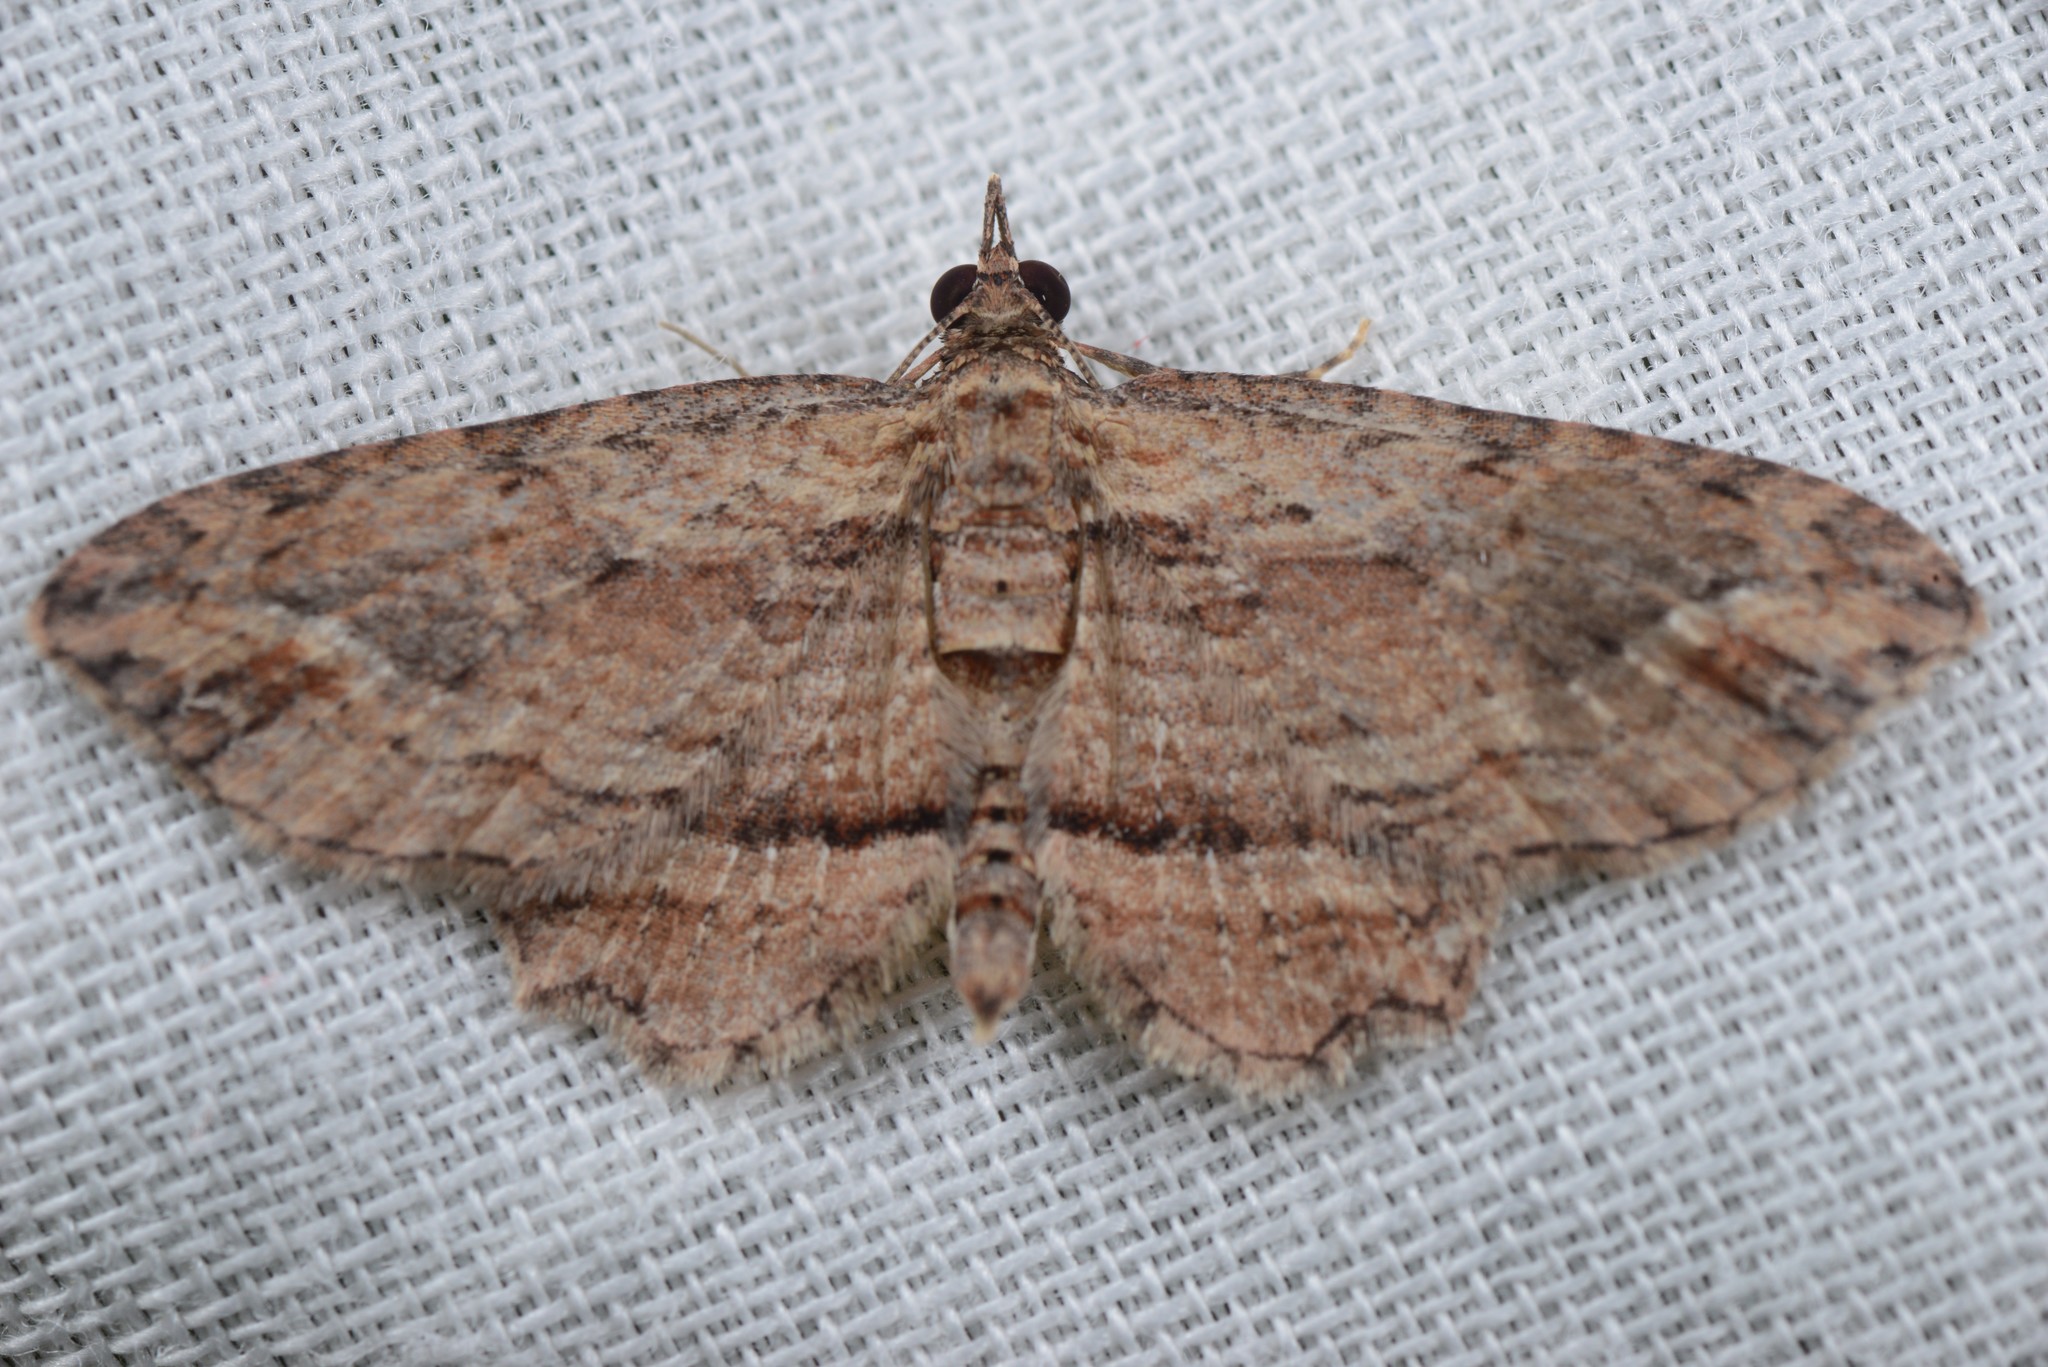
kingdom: Animalia
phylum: Arthropoda
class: Insecta
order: Lepidoptera
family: Geometridae
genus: Chloroclystis
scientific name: Chloroclystis filata
